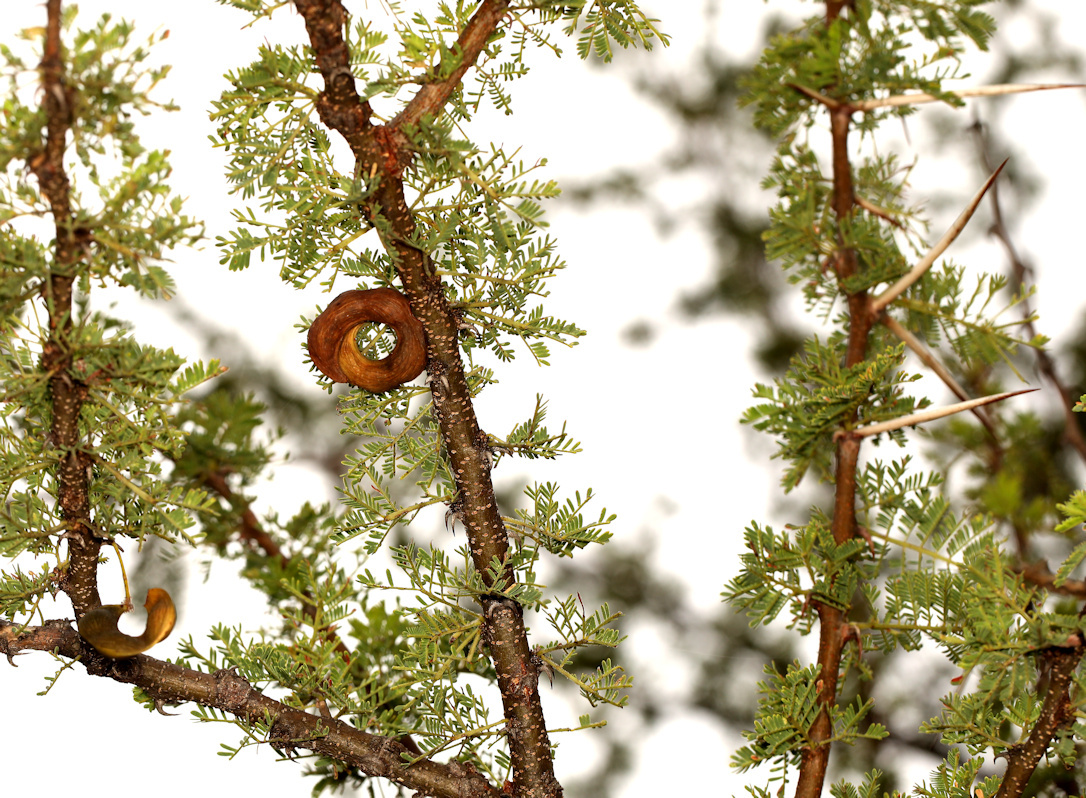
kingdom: Plantae
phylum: Tracheophyta
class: Magnoliopsida
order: Fabales
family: Fabaceae
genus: Vachellia
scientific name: Vachellia tortilis
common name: Umbrella thorn acacia
